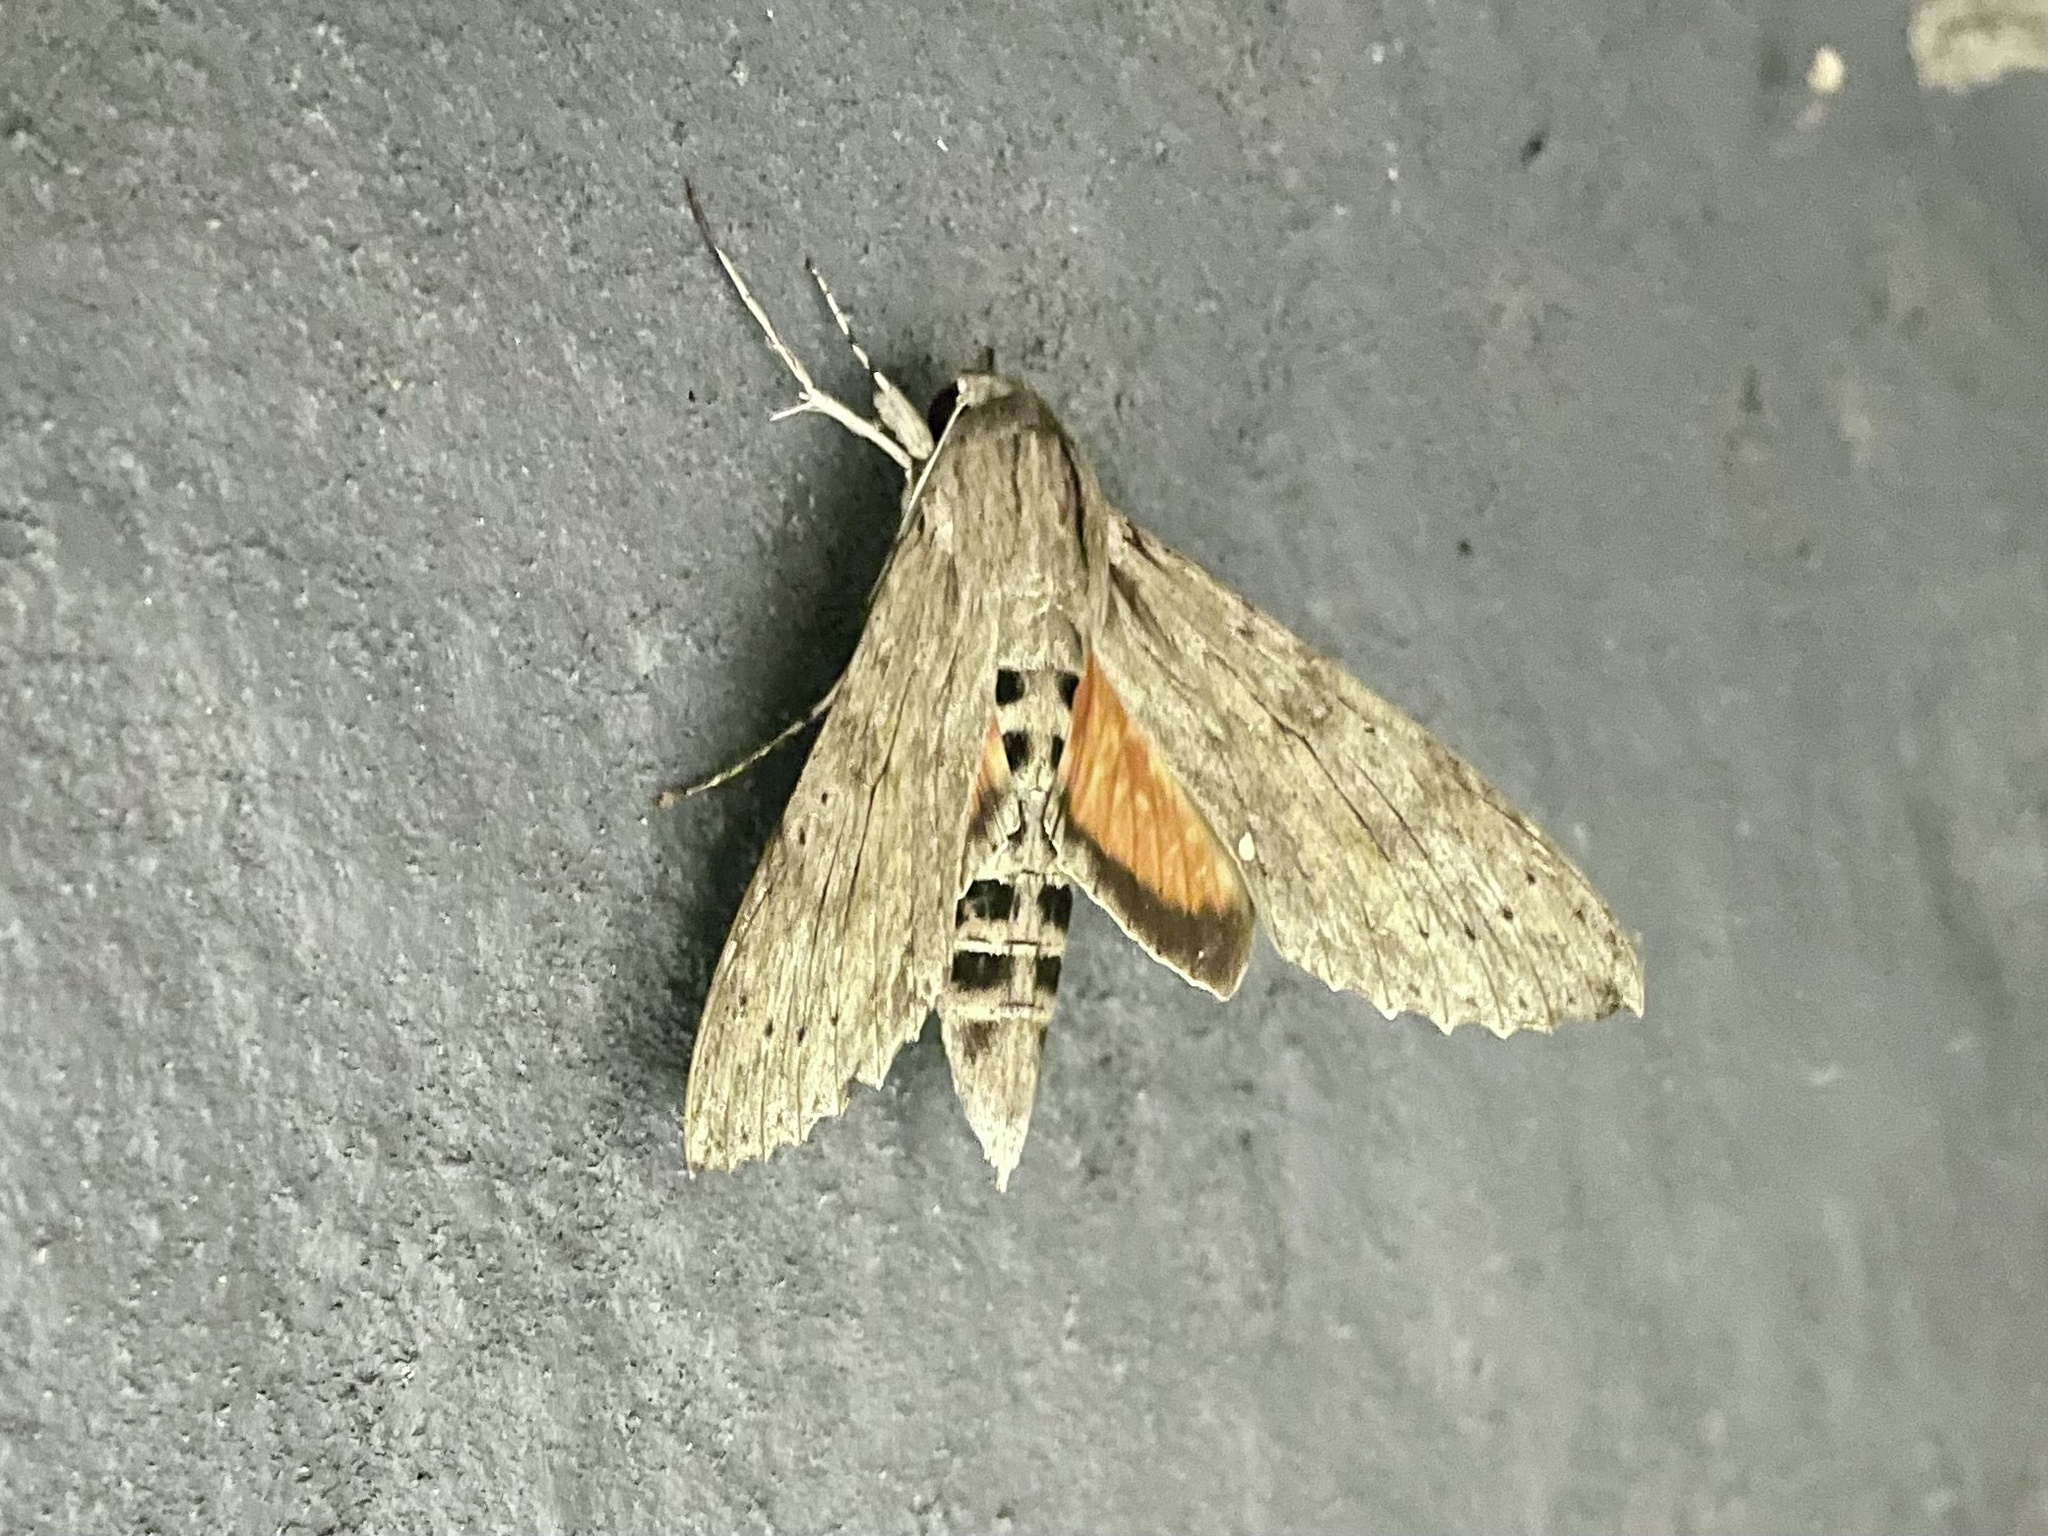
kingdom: Animalia
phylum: Arthropoda
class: Insecta
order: Lepidoptera
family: Sphingidae
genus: Erinnyis
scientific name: Erinnyis ello
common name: Ello sphinx
